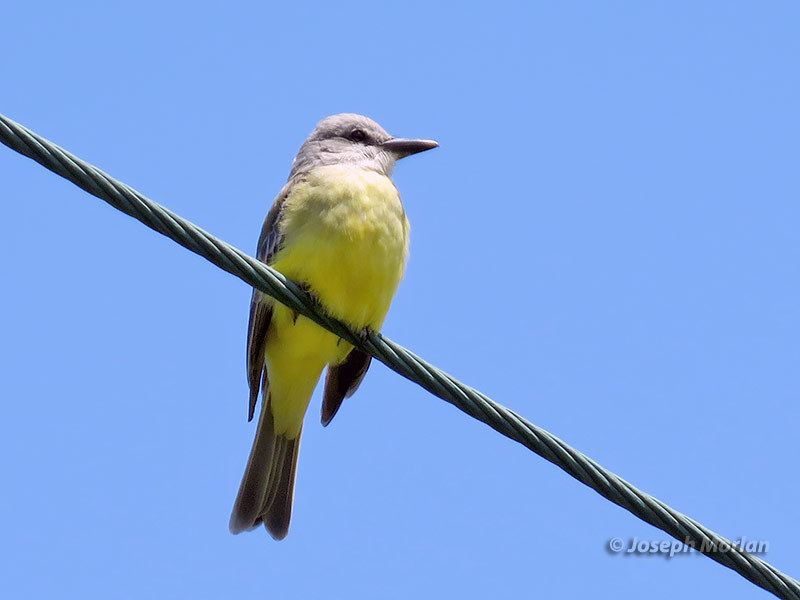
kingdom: Animalia
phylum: Chordata
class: Aves
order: Passeriformes
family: Tyrannidae
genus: Tyrannus
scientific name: Tyrannus melancholicus
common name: Tropical kingbird
